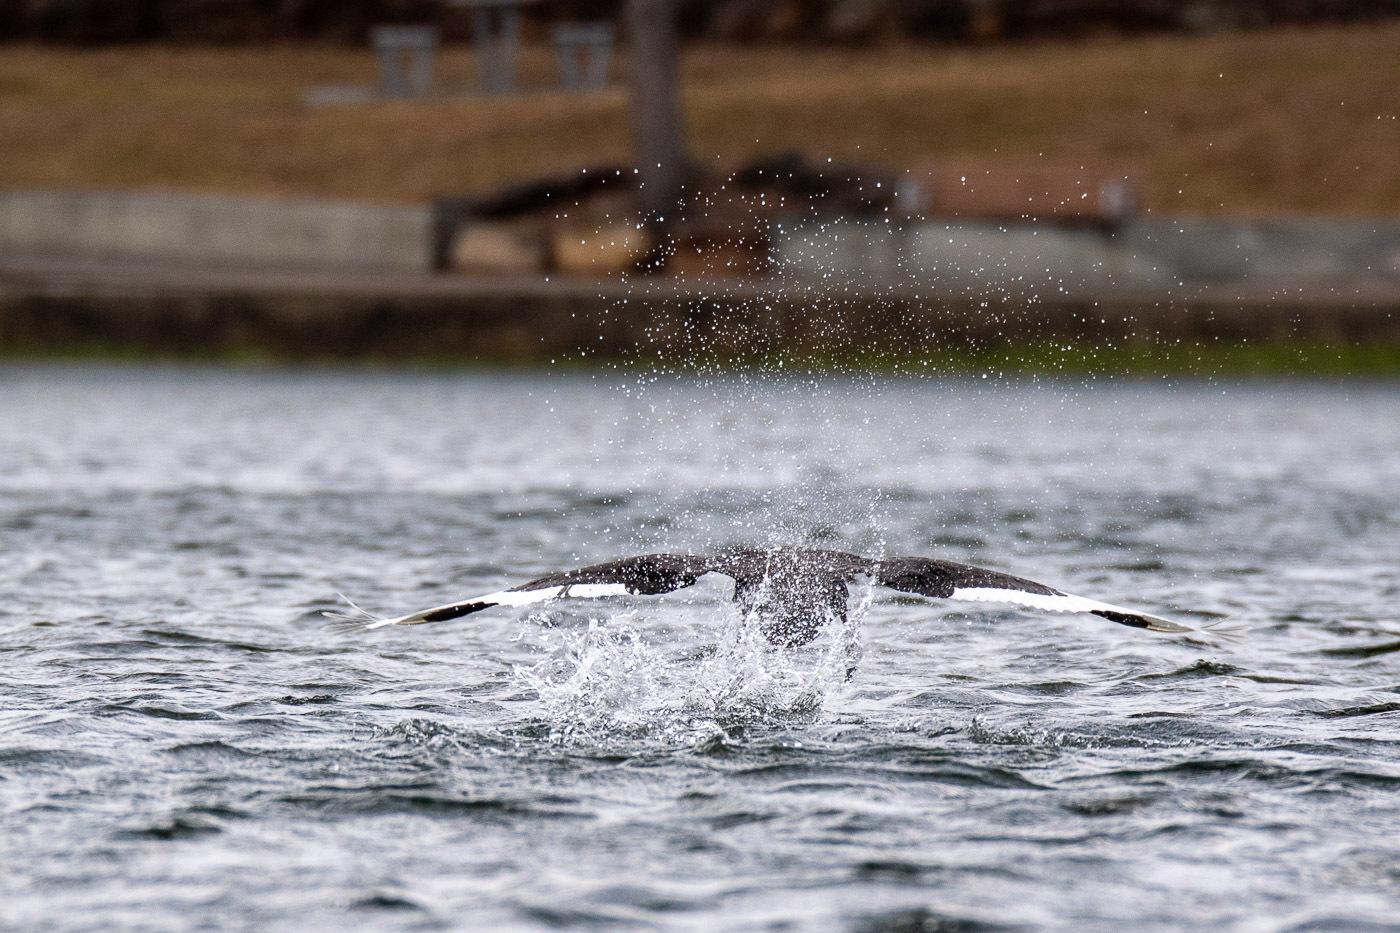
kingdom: Animalia
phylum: Chordata
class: Aves
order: Anseriformes
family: Anatidae
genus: Cygnus
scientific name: Cygnus atratus
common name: Black swan
